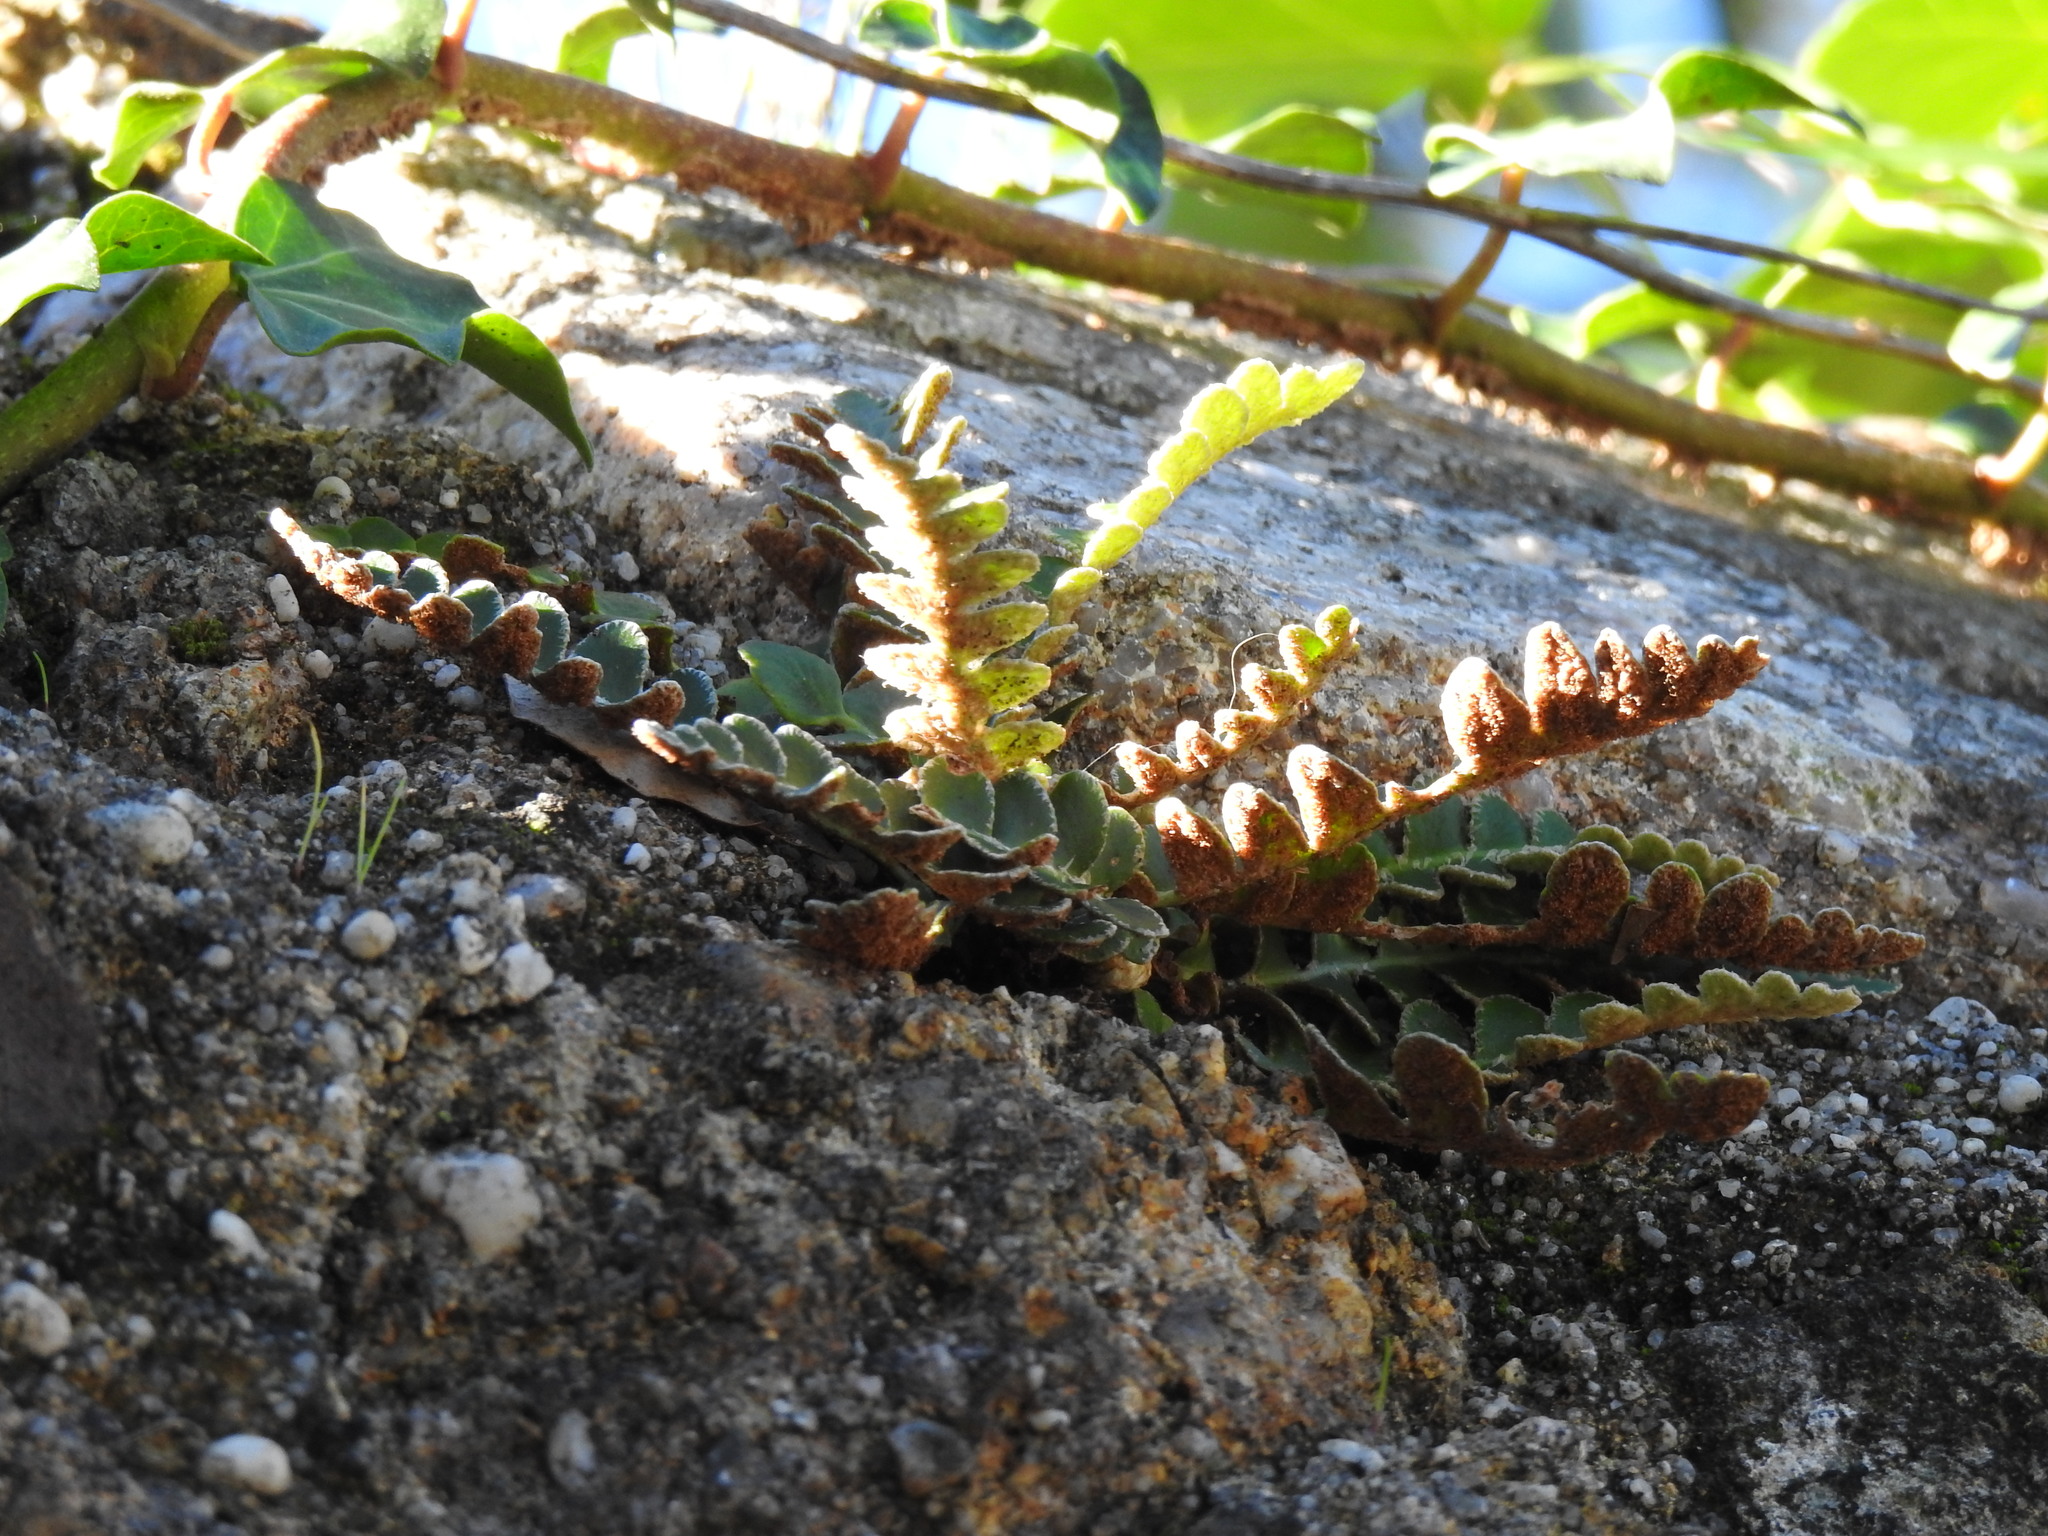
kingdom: Plantae
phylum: Tracheophyta
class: Polypodiopsida
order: Polypodiales
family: Aspleniaceae
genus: Asplenium
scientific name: Asplenium ceterach
